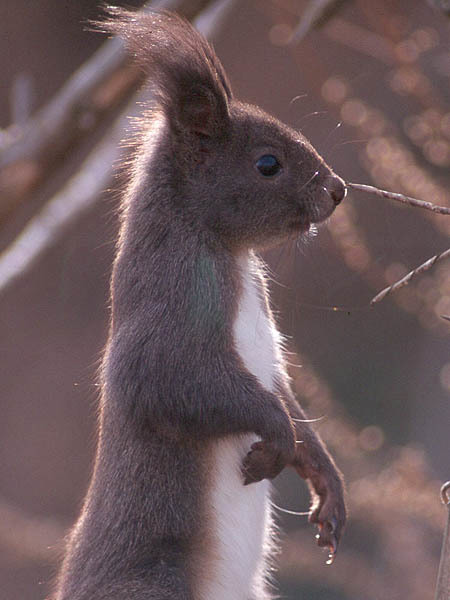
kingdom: Animalia
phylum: Chordata
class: Mammalia
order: Rodentia
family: Sciuridae
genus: Sciurus
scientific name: Sciurus vulgaris
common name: Eurasian red squirrel
